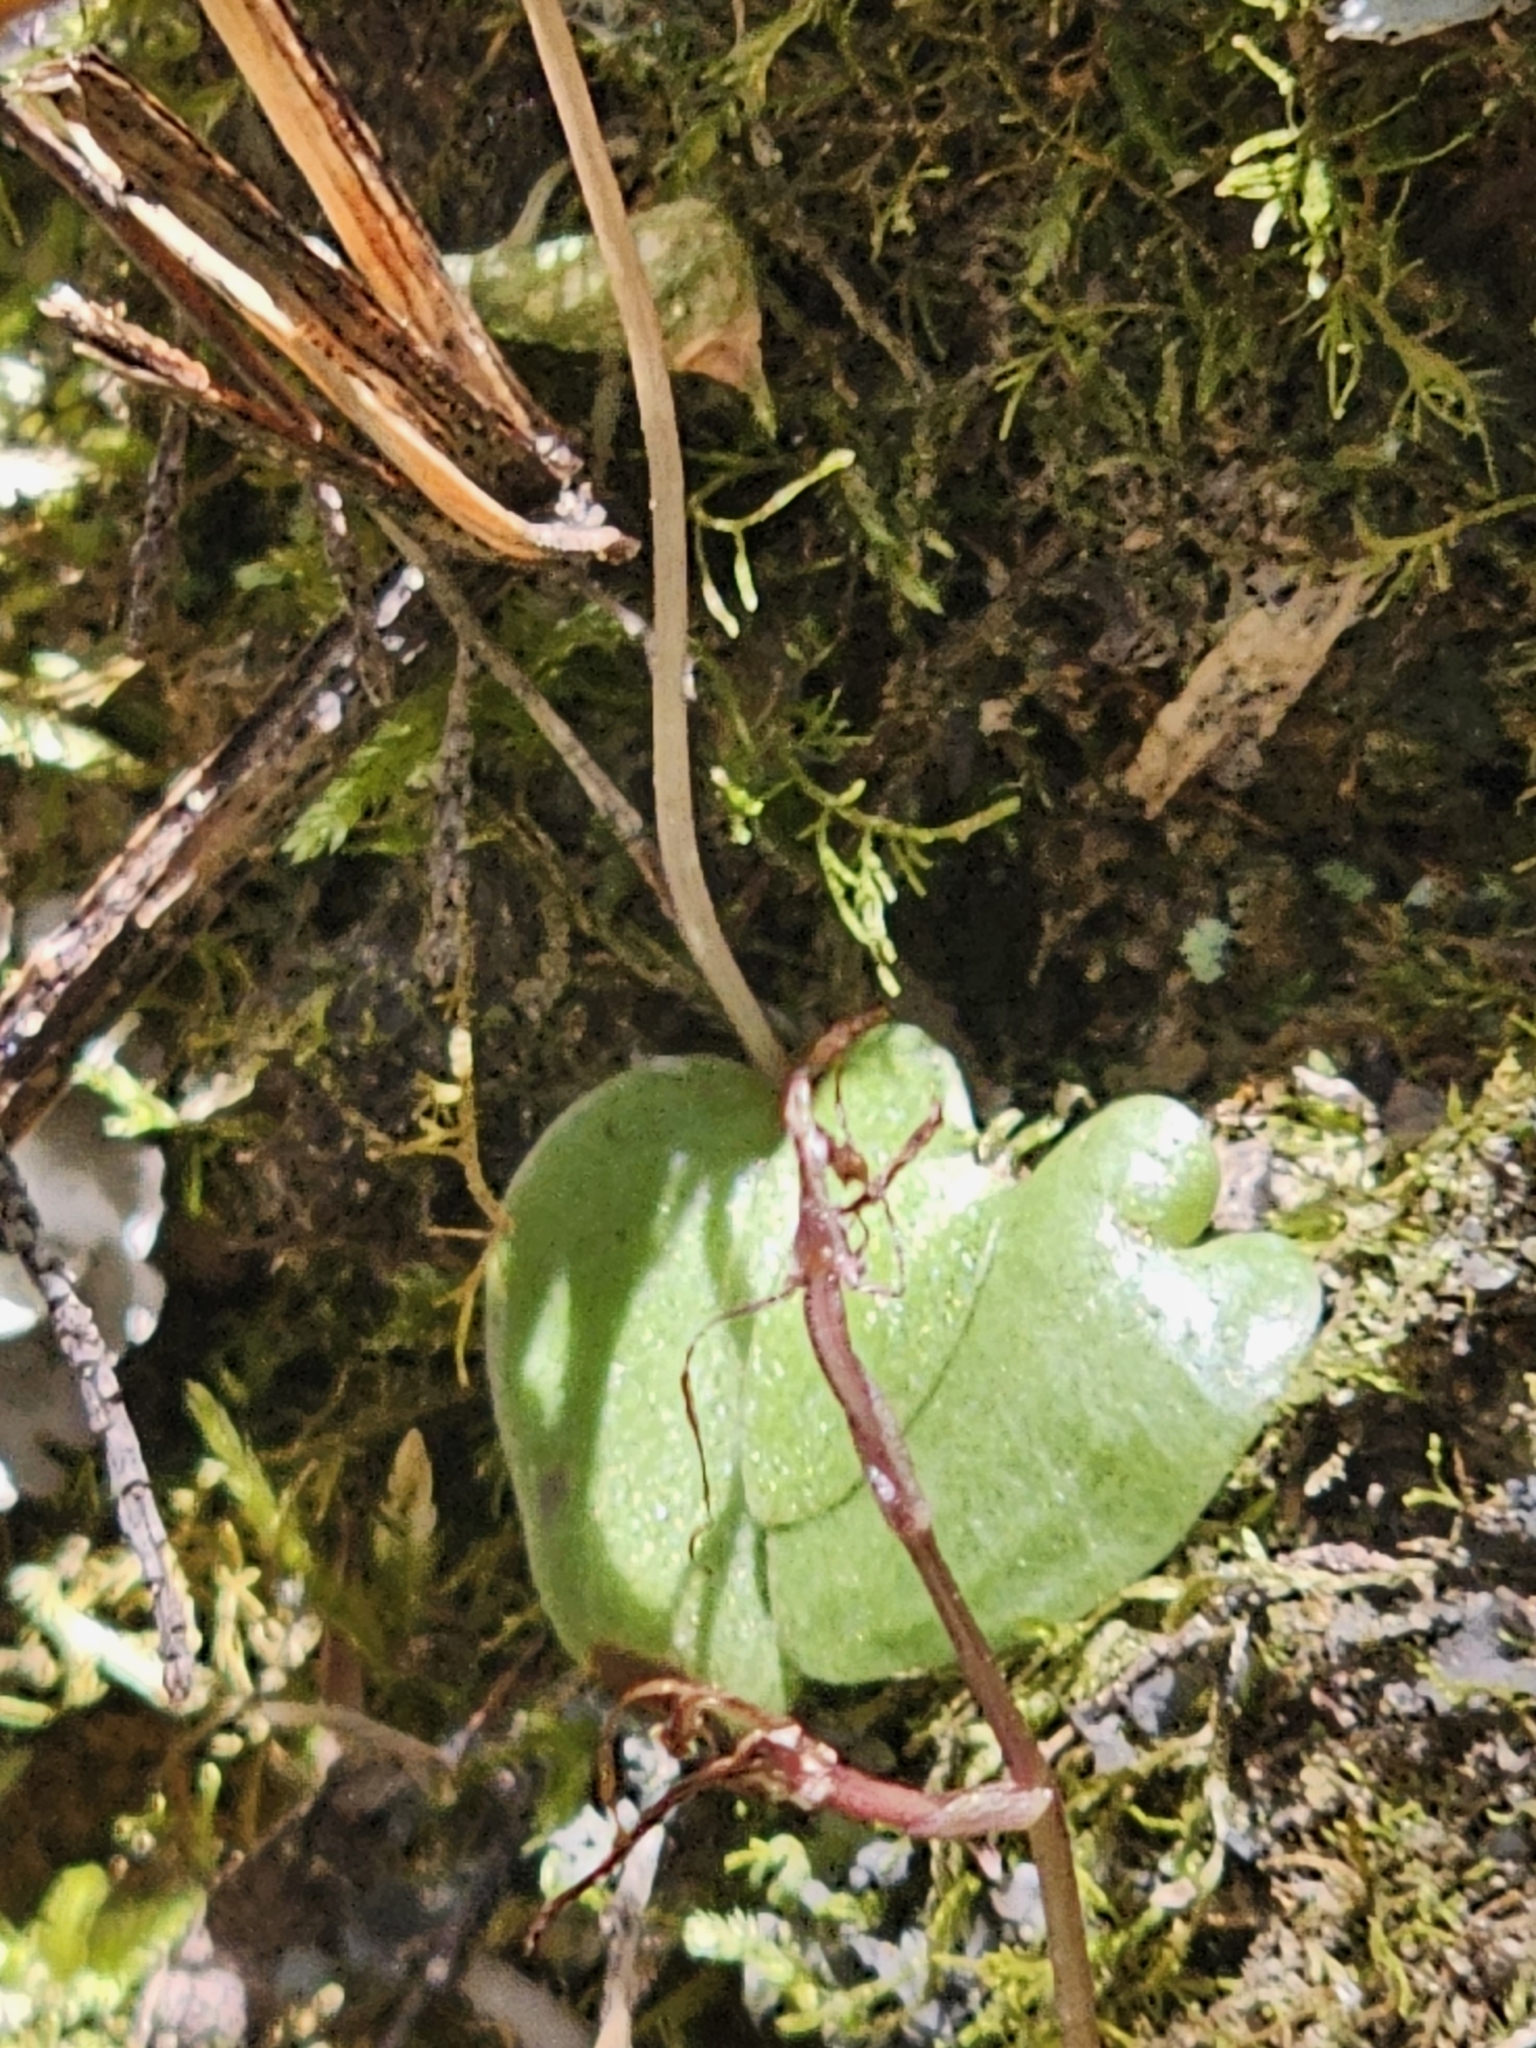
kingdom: Plantae
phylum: Tracheophyta
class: Liliopsida
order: Asparagales
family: Orchidaceae
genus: Cyrtostylis
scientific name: Cyrtostylis rotundifolia
